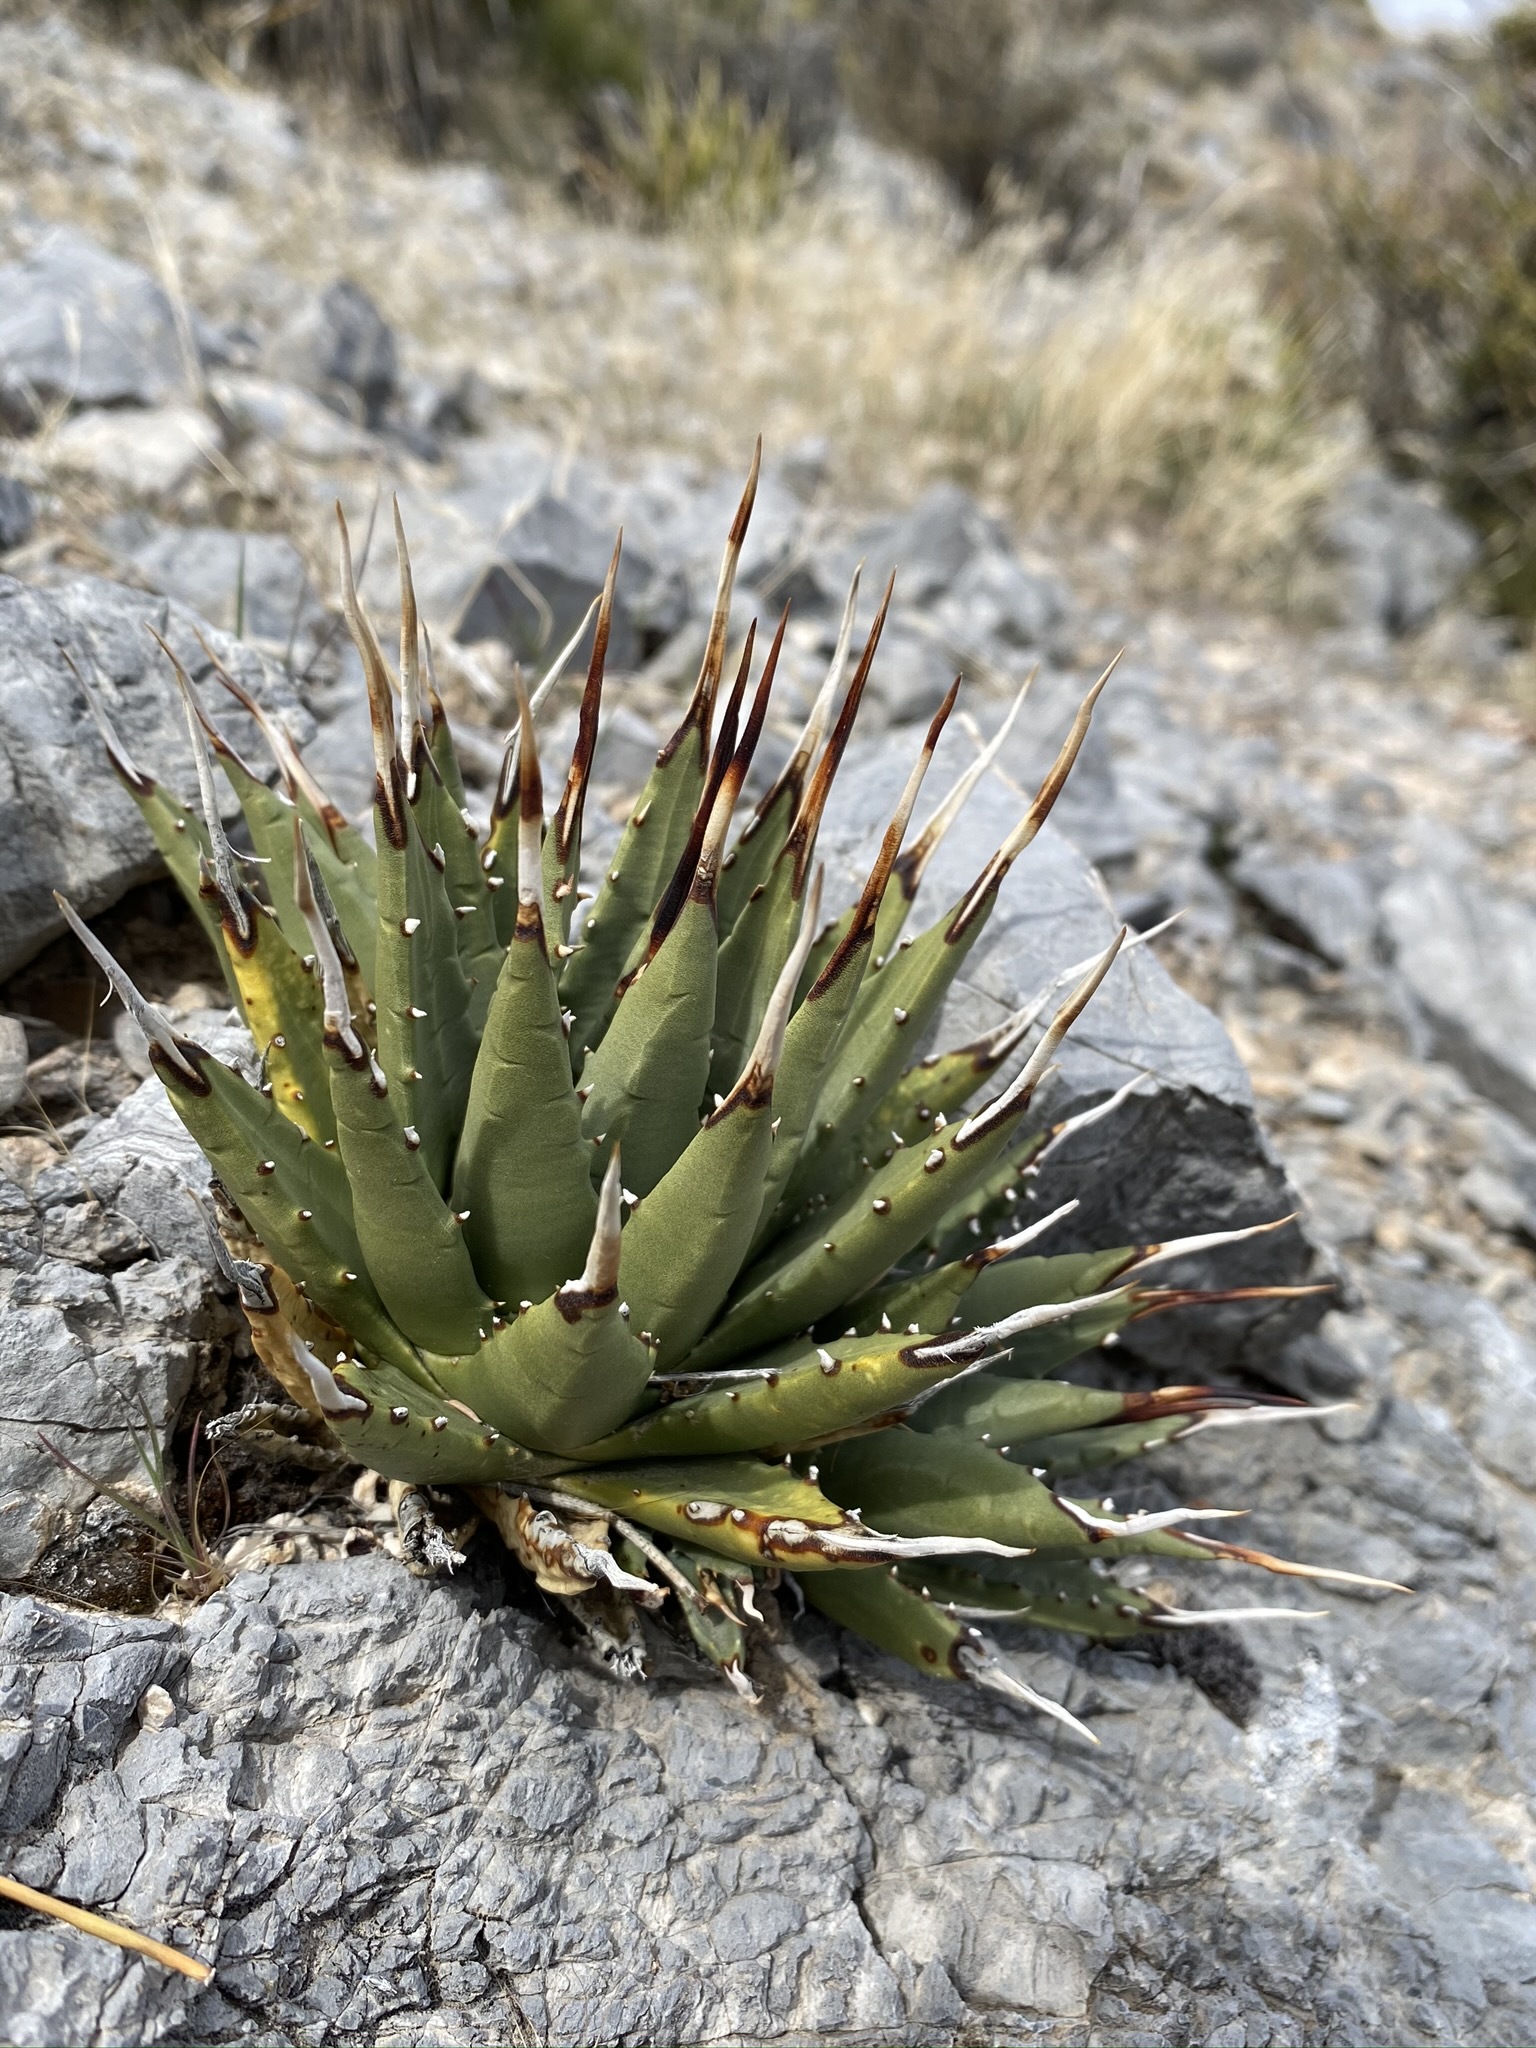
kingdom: Plantae
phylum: Tracheophyta
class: Liliopsida
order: Asparagales
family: Asparagaceae
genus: Agave
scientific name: Agave utahensis
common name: Utah agave
